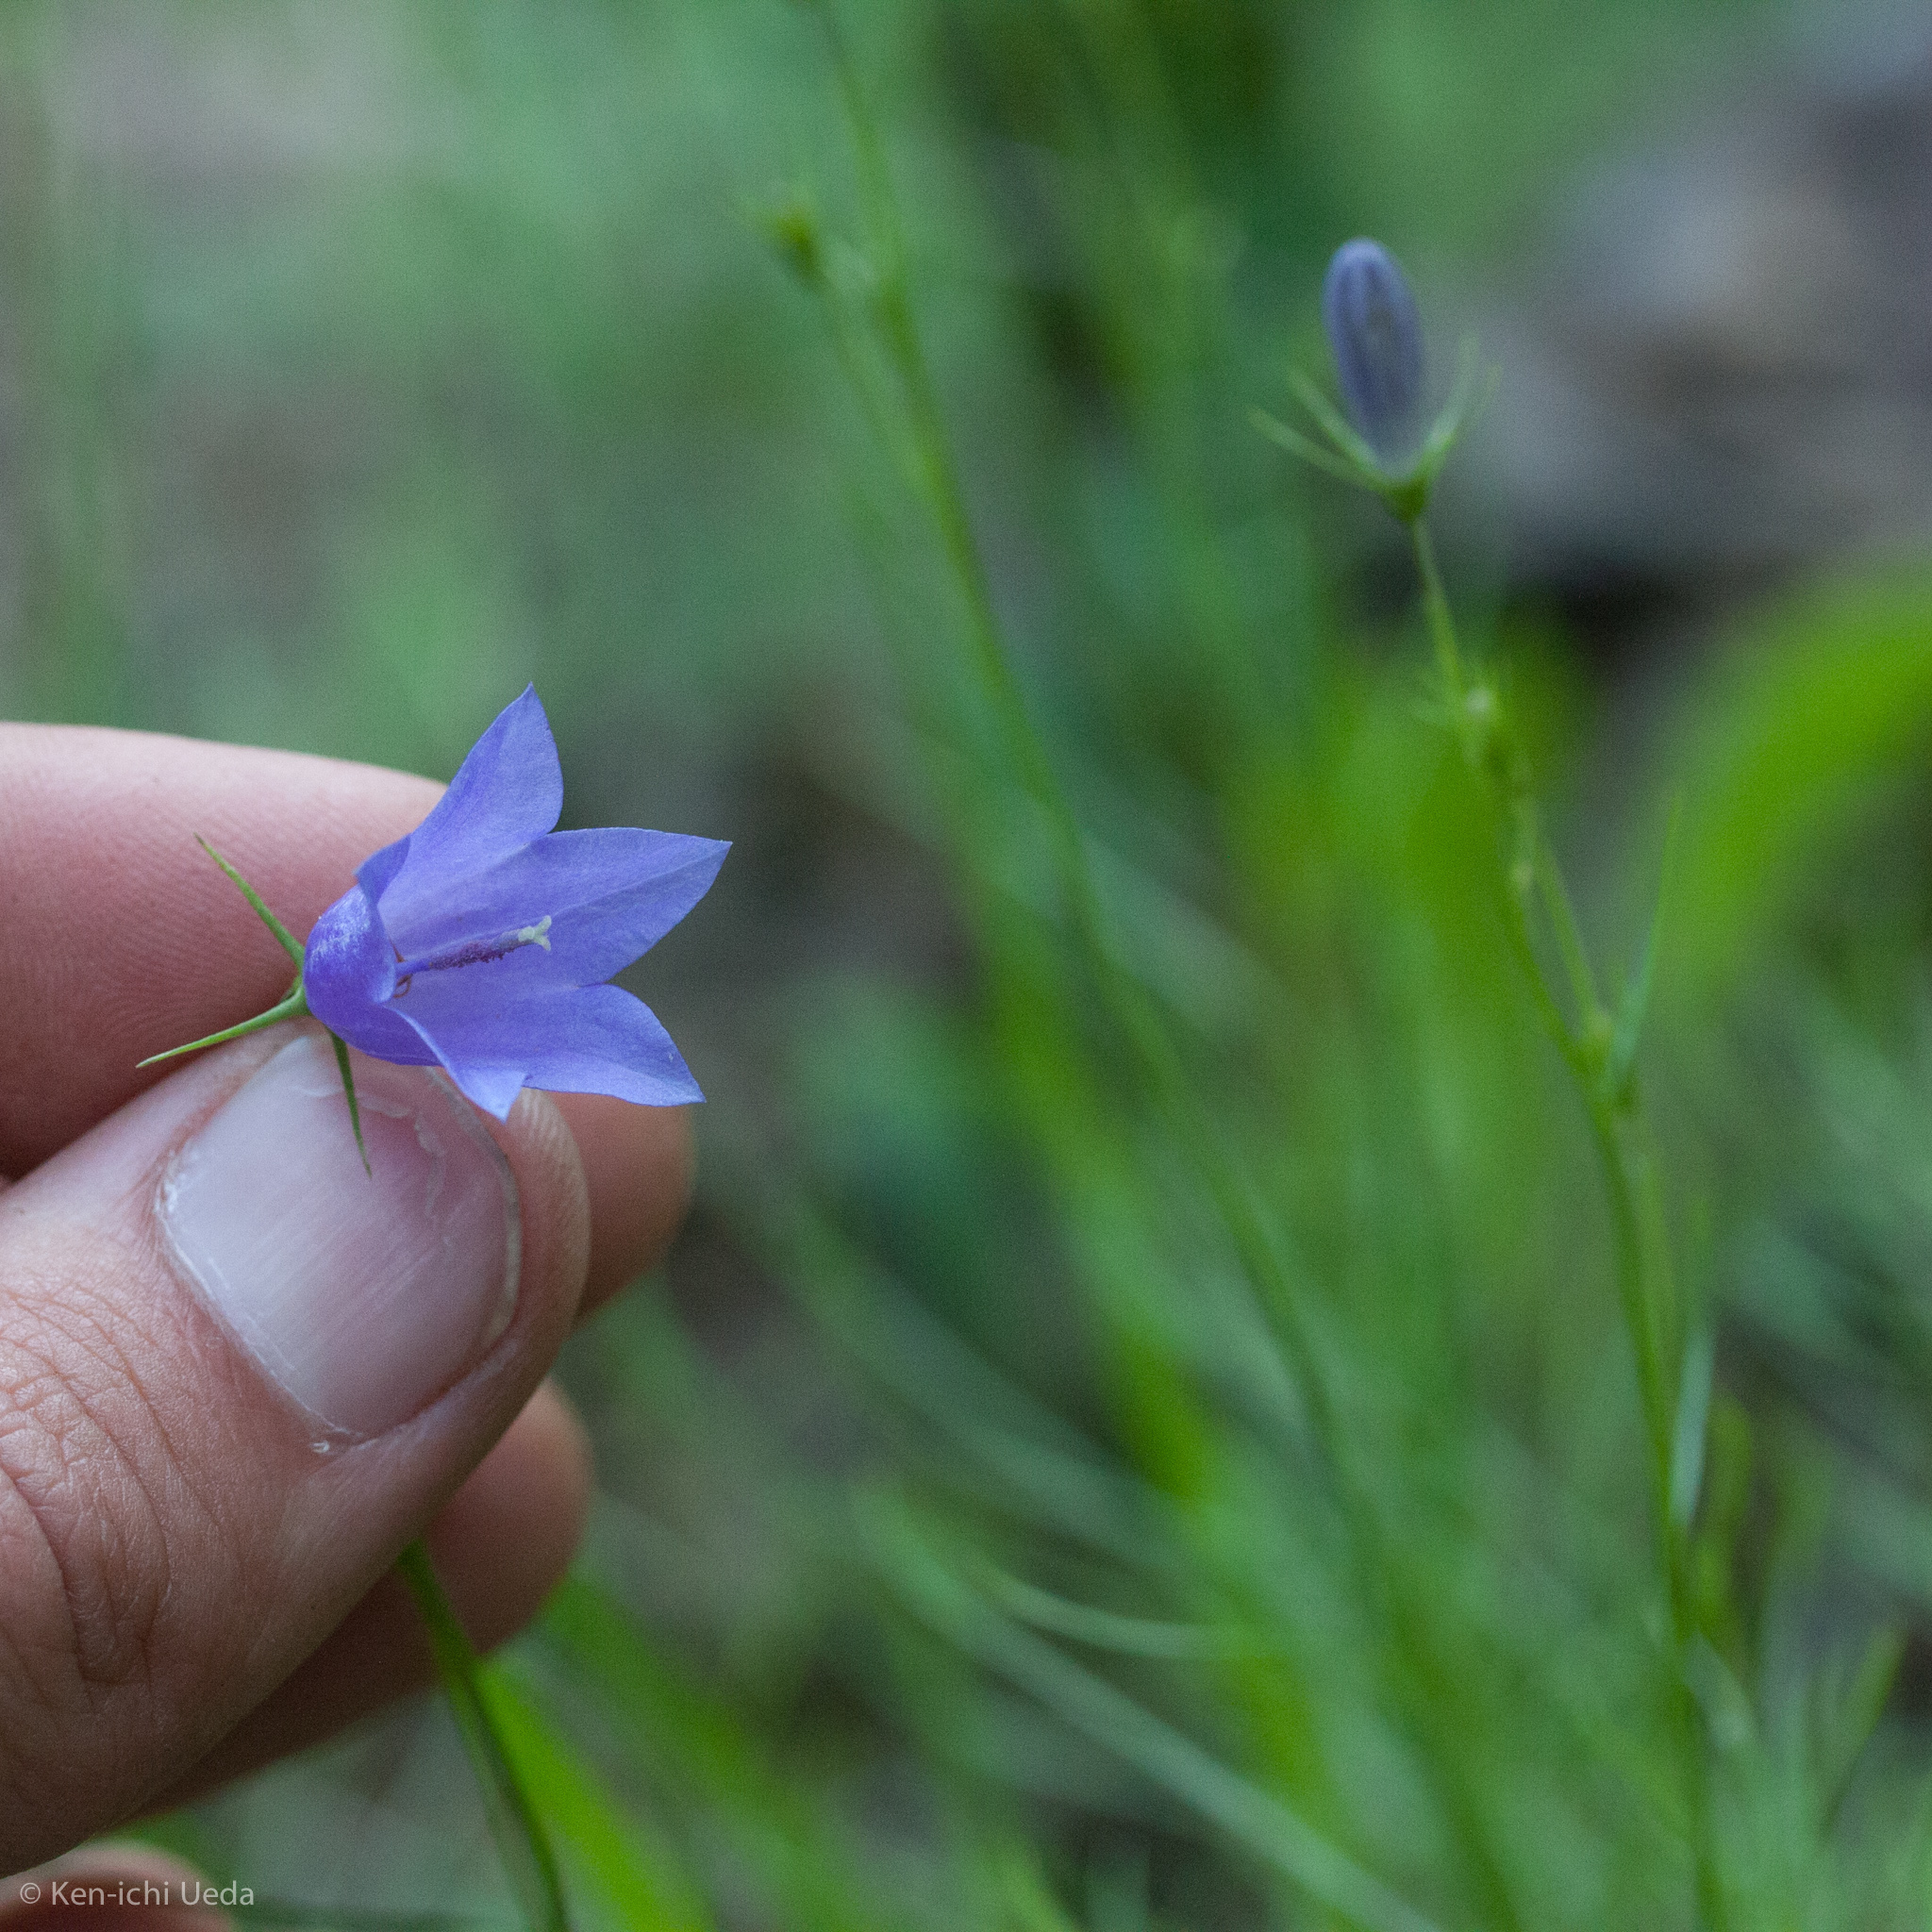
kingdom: Plantae
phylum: Tracheophyta
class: Magnoliopsida
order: Asterales
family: Campanulaceae
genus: Campanula
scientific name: Campanula intercedens
